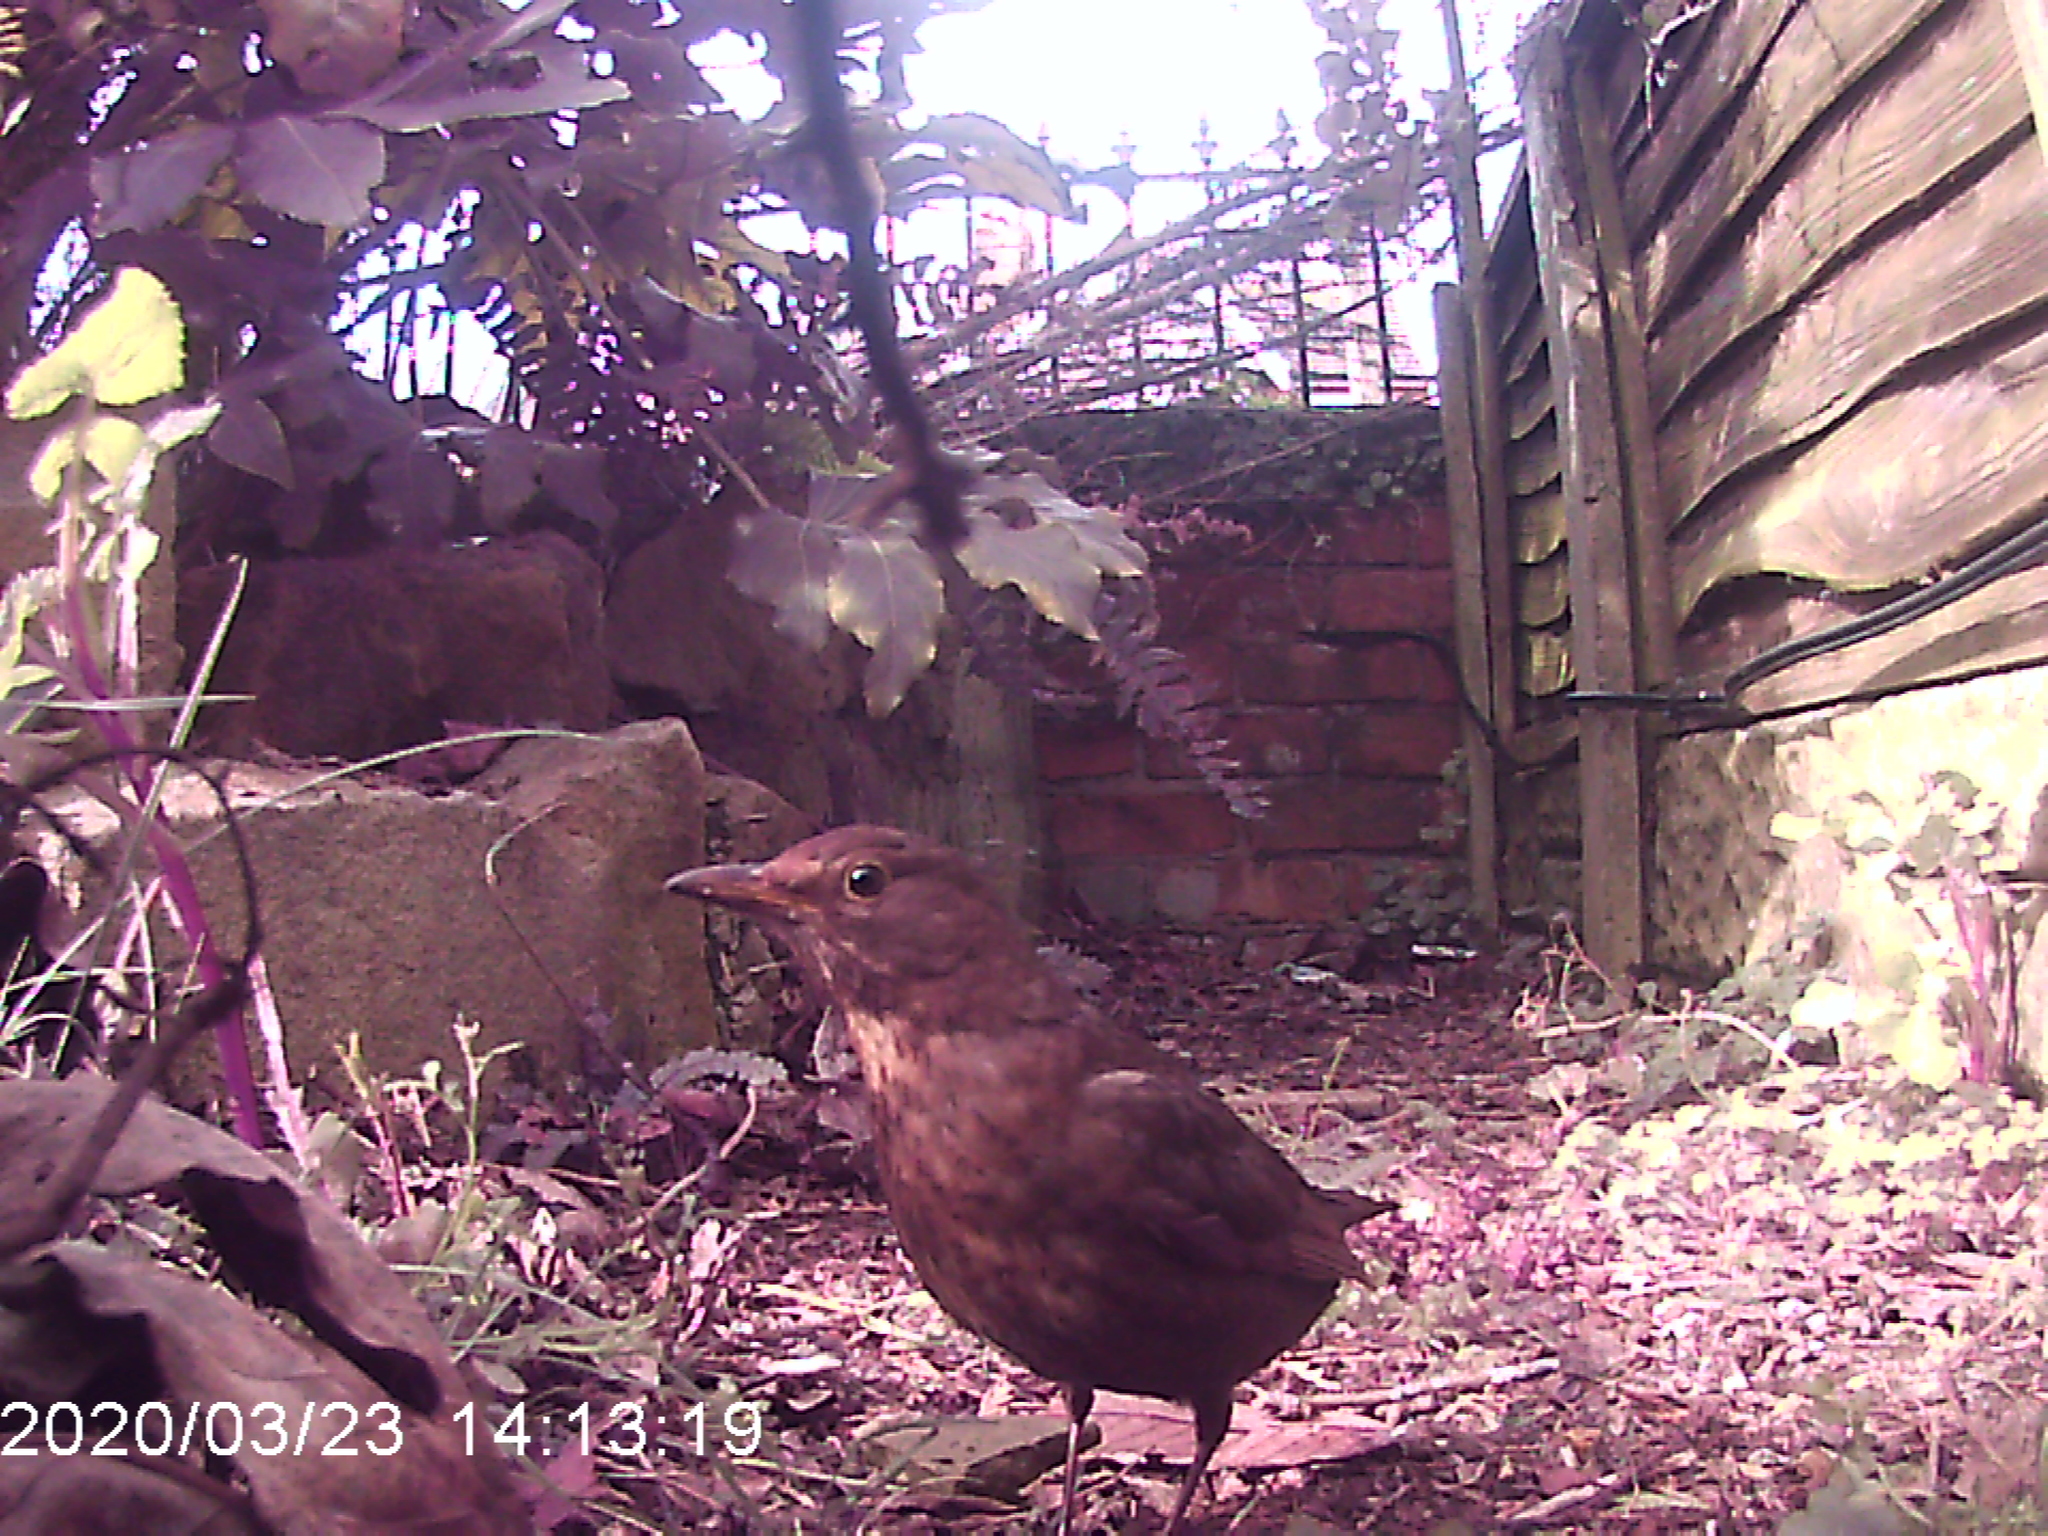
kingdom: Animalia
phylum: Chordata
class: Aves
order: Passeriformes
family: Turdidae
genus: Turdus
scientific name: Turdus merula
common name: Common blackbird
